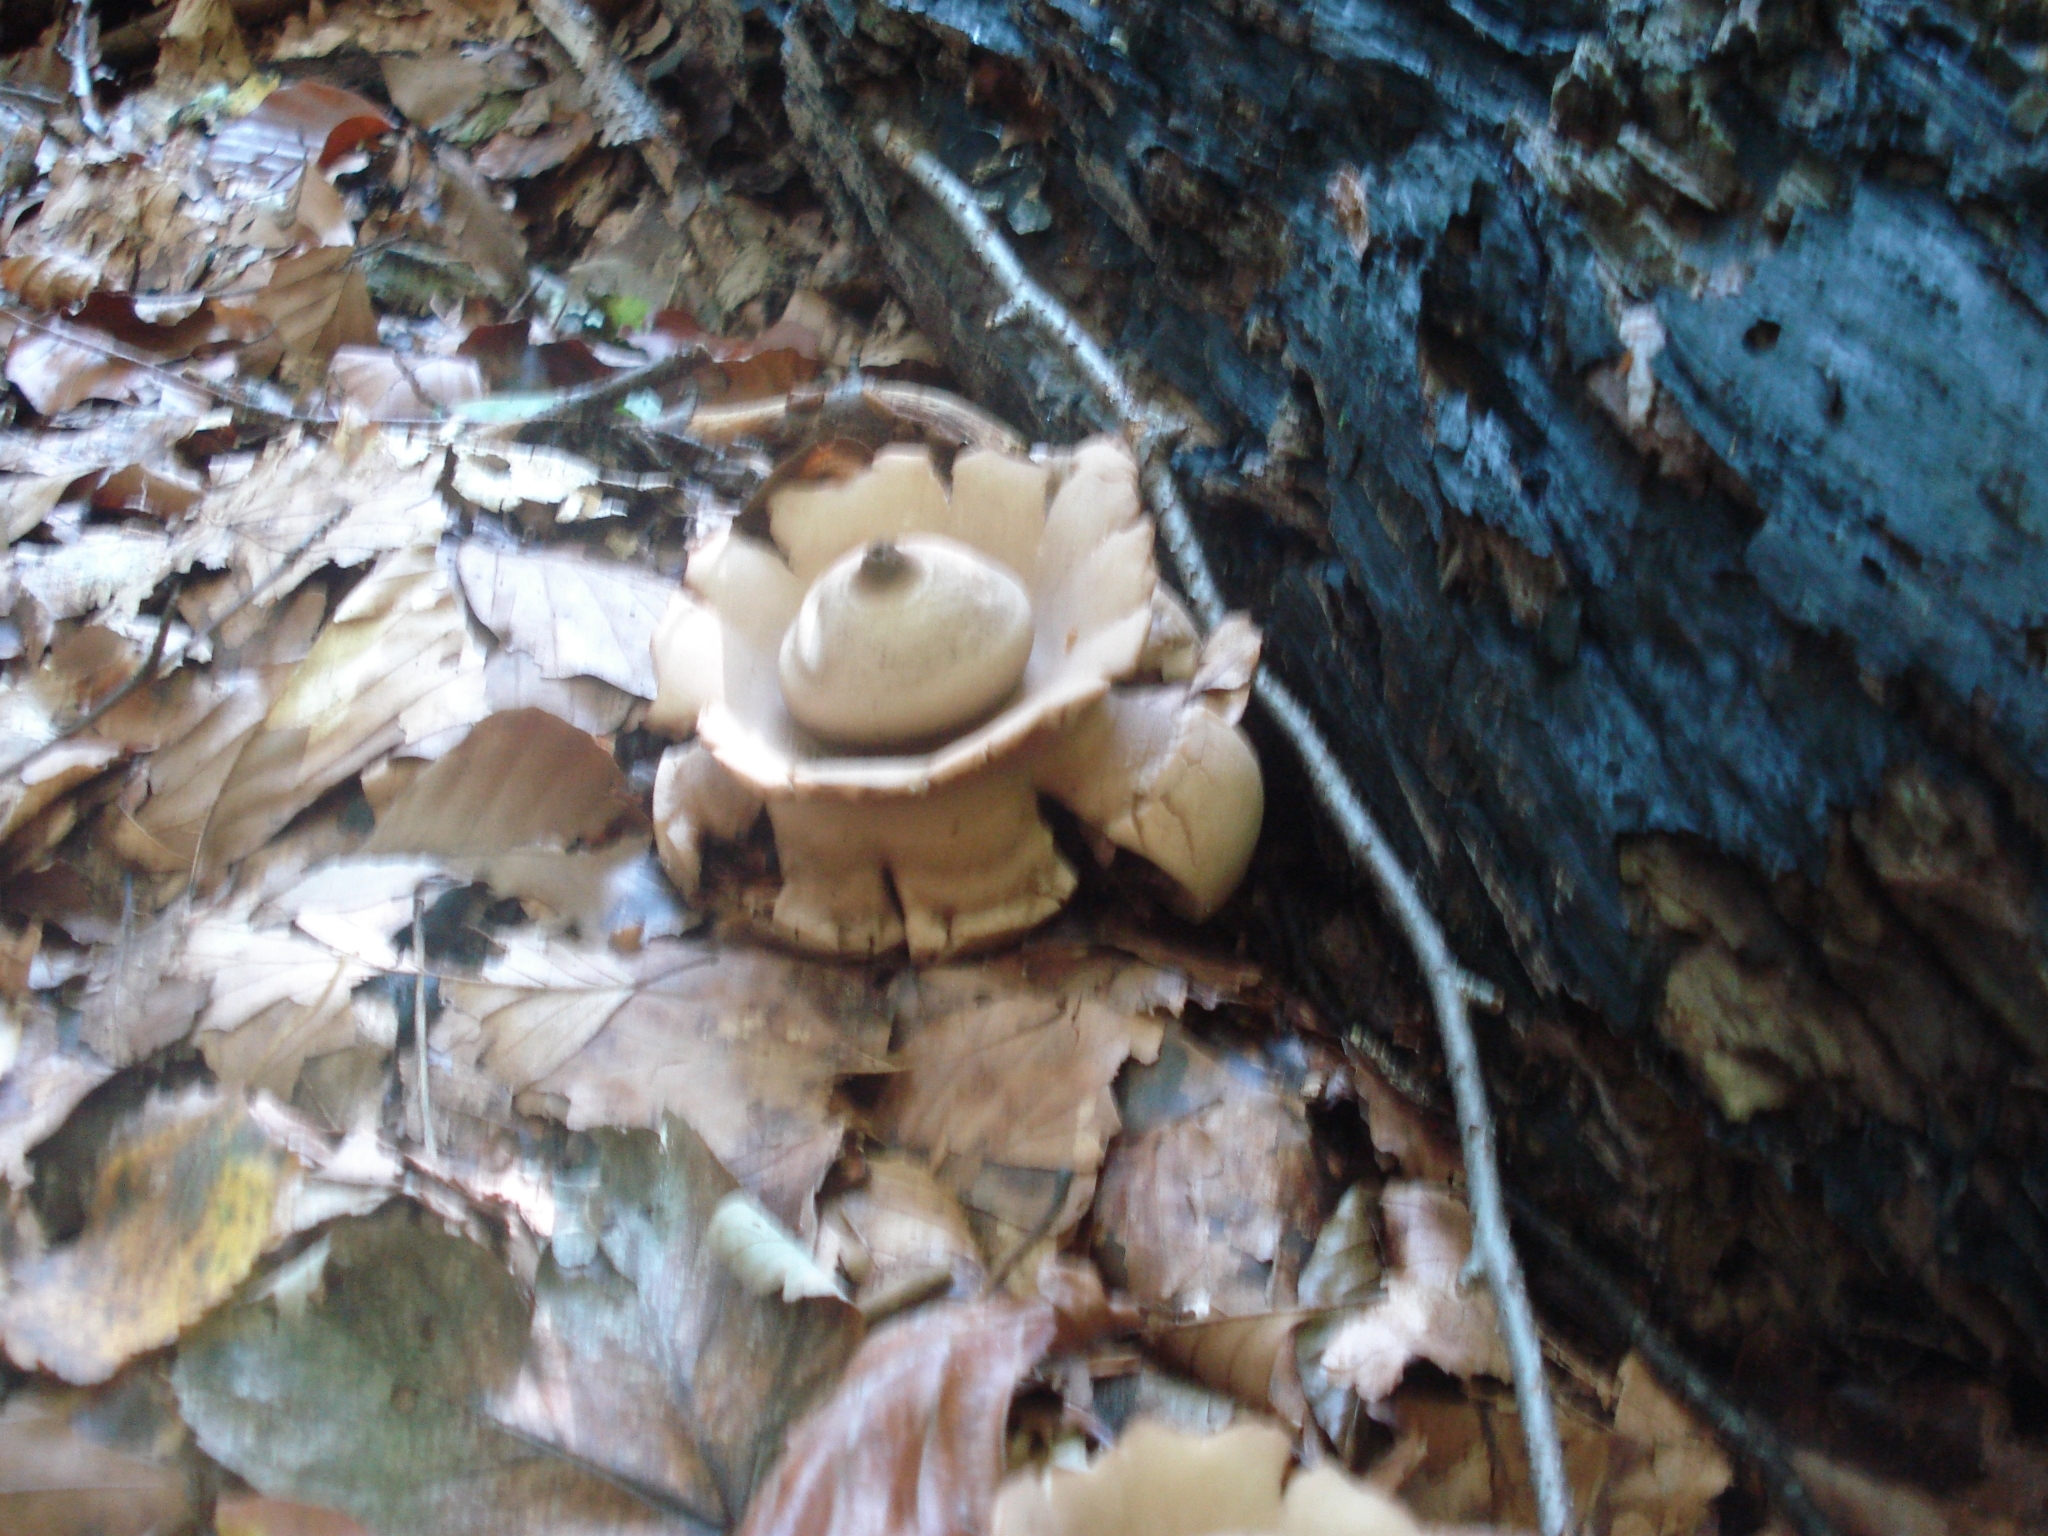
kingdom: Fungi
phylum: Basidiomycota
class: Agaricomycetes
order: Geastrales
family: Geastraceae
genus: Geastrum
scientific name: Geastrum triplex
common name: Collared earthstar
